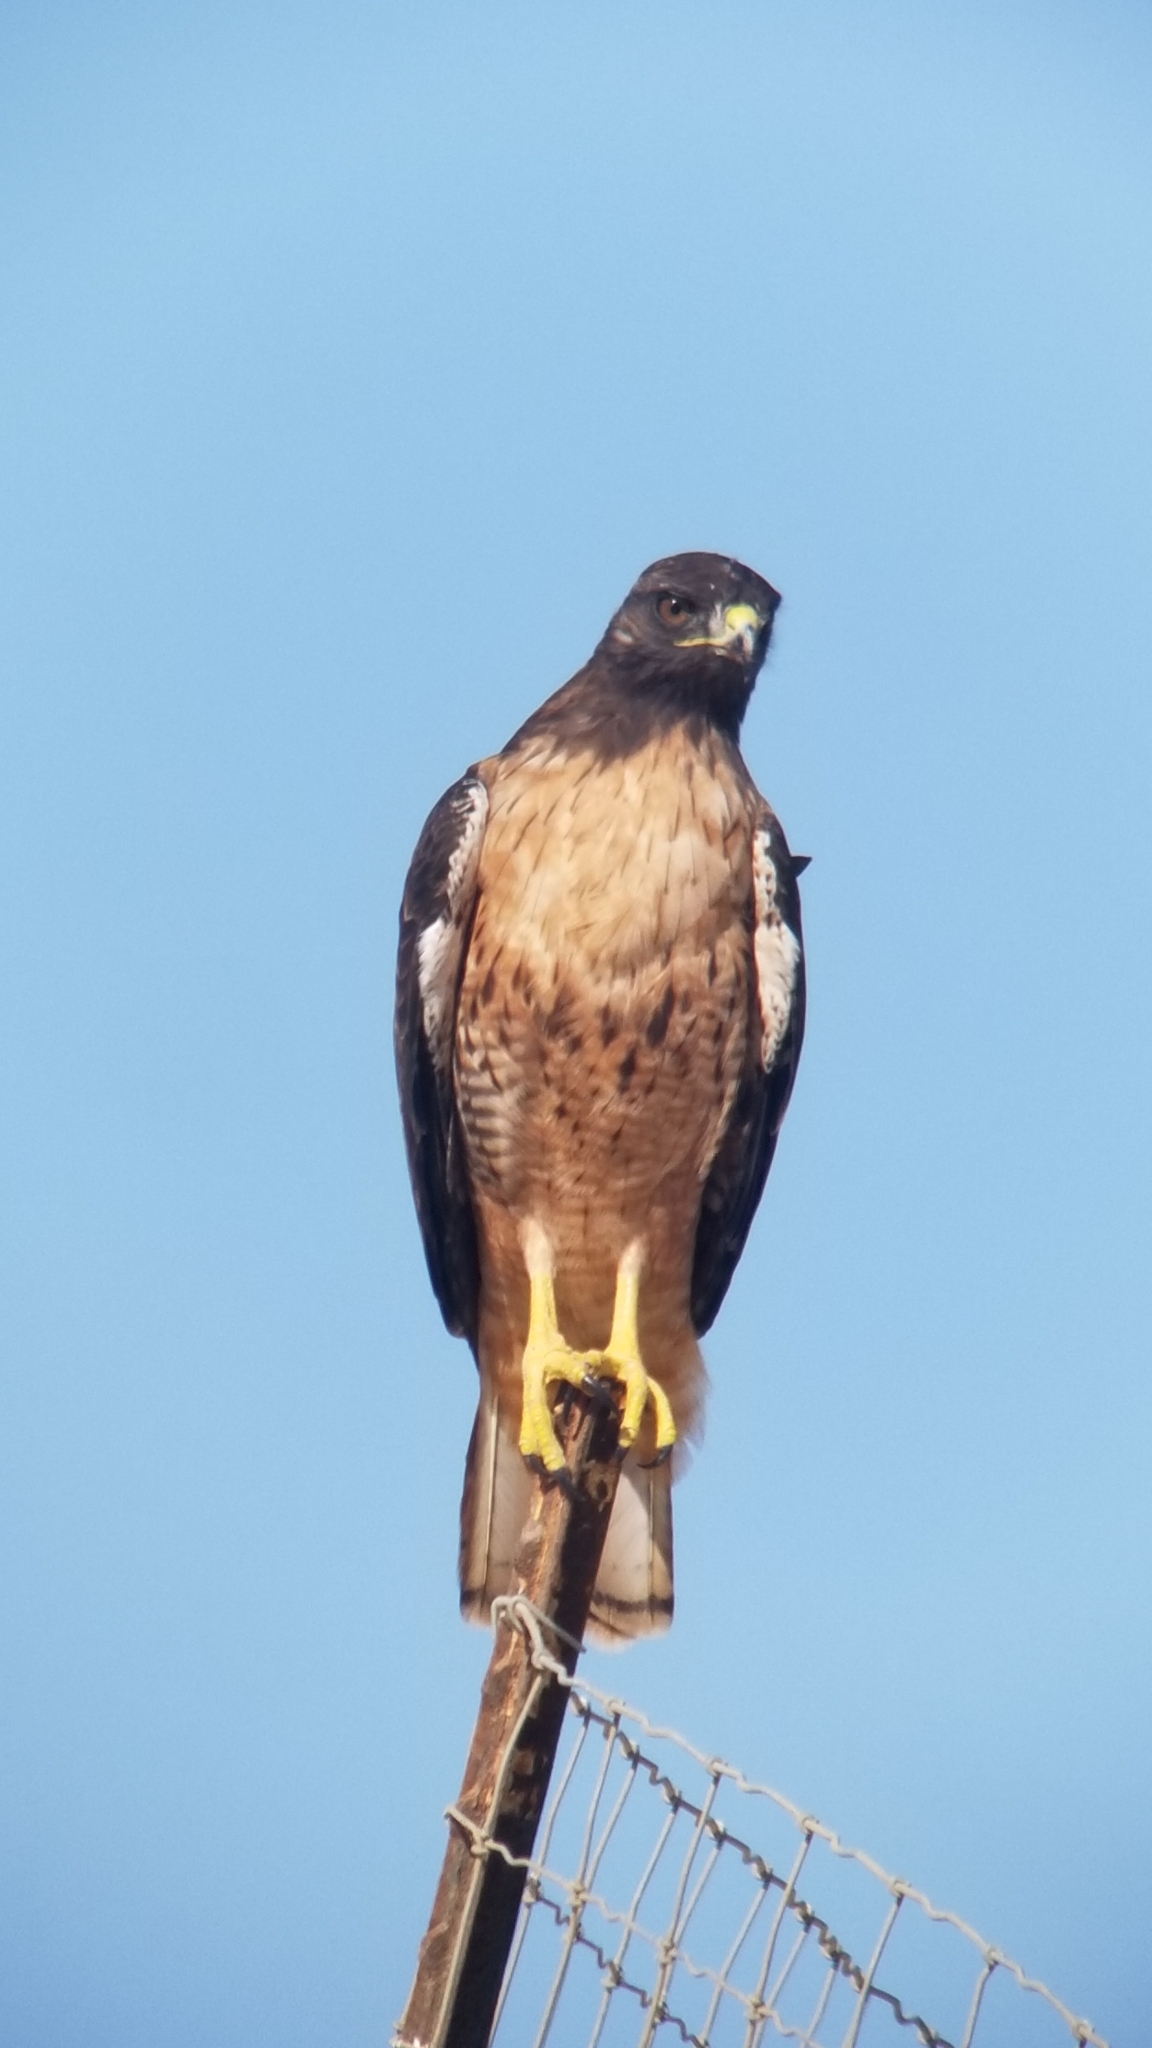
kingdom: Animalia
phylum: Chordata
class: Aves
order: Accipitriformes
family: Accipitridae
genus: Buteo
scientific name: Buteo jamaicensis
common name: Red-tailed hawk
